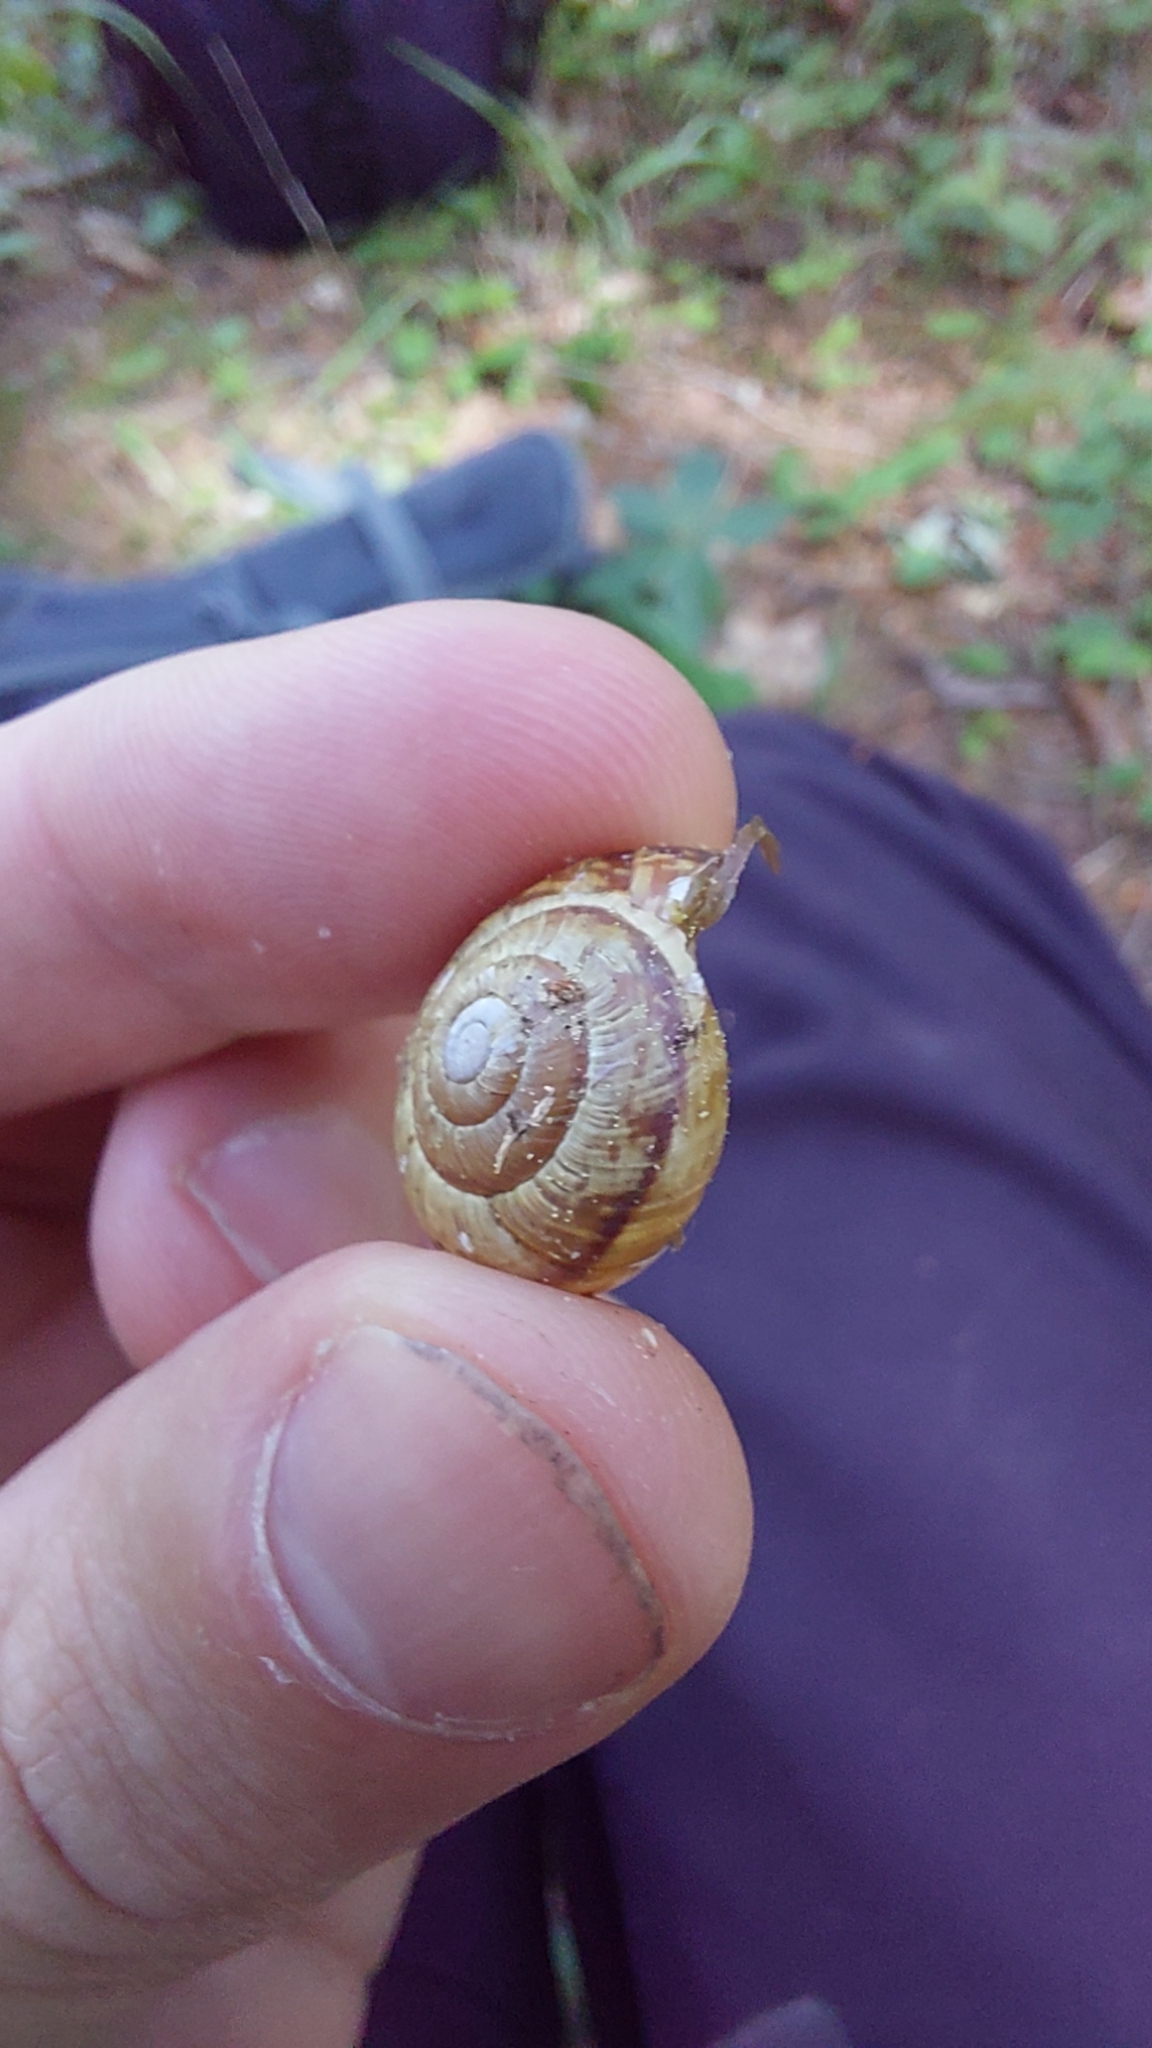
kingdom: Animalia
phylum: Mollusca
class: Gastropoda
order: Stylommatophora
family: Helicidae
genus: Arianta
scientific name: Arianta arbustorum
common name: Copse snail
